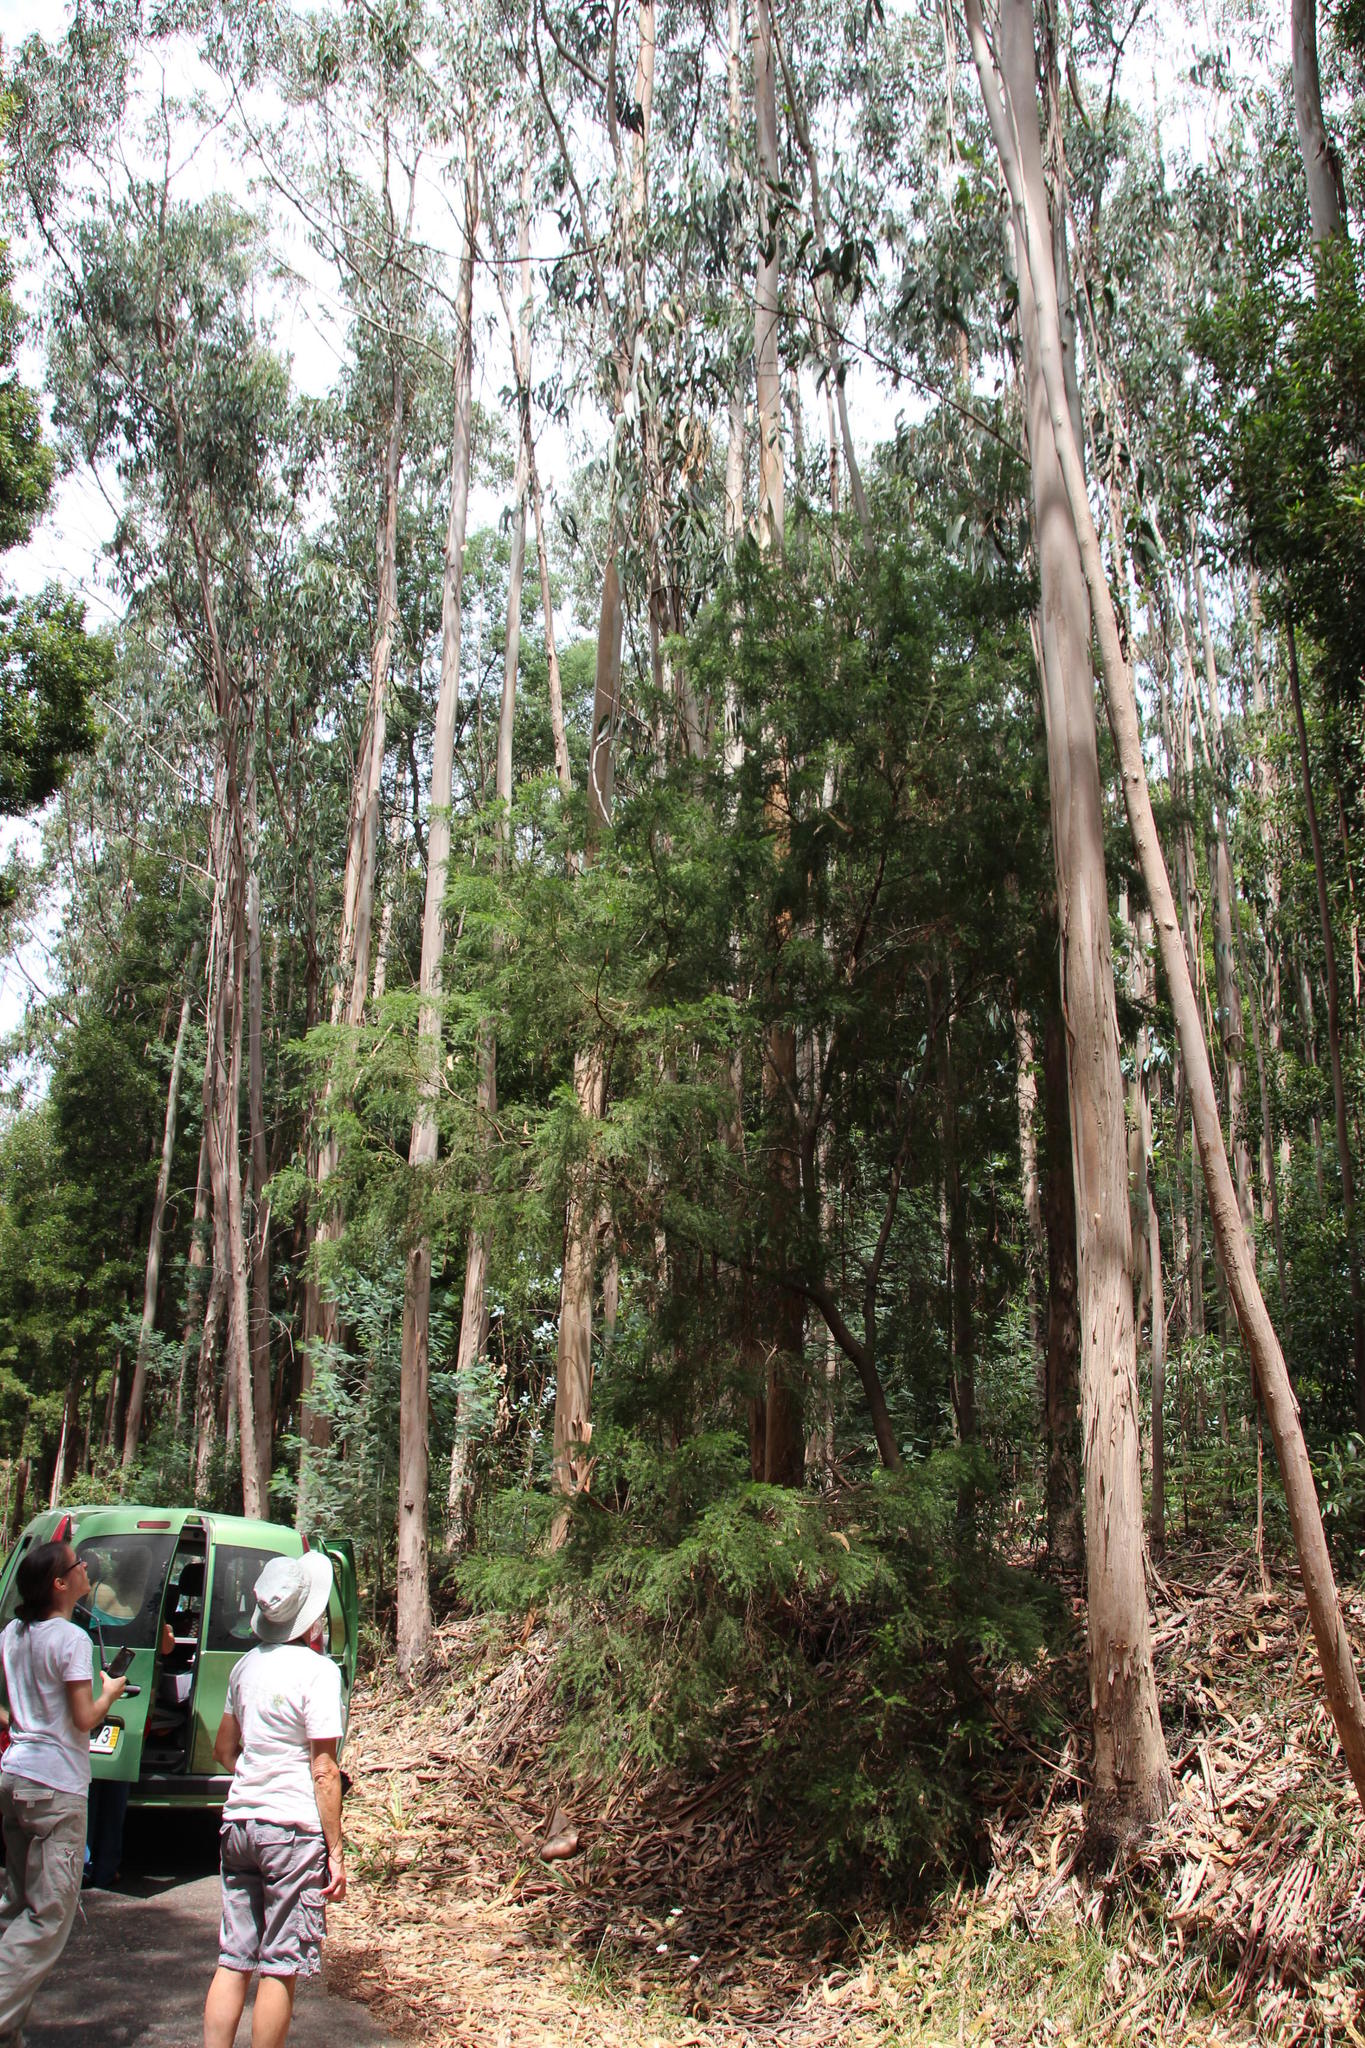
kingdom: Plantae
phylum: Tracheophyta
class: Magnoliopsida
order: Myrtales
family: Myrtaceae
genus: Eucalyptus
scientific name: Eucalyptus globulus
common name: Southern blue-gum
